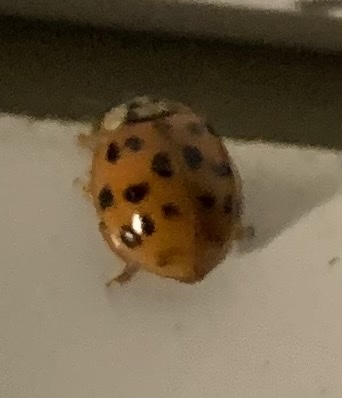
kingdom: Animalia
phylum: Arthropoda
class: Insecta
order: Coleoptera
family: Coccinellidae
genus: Harmonia
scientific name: Harmonia axyridis
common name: Harlequin ladybird
